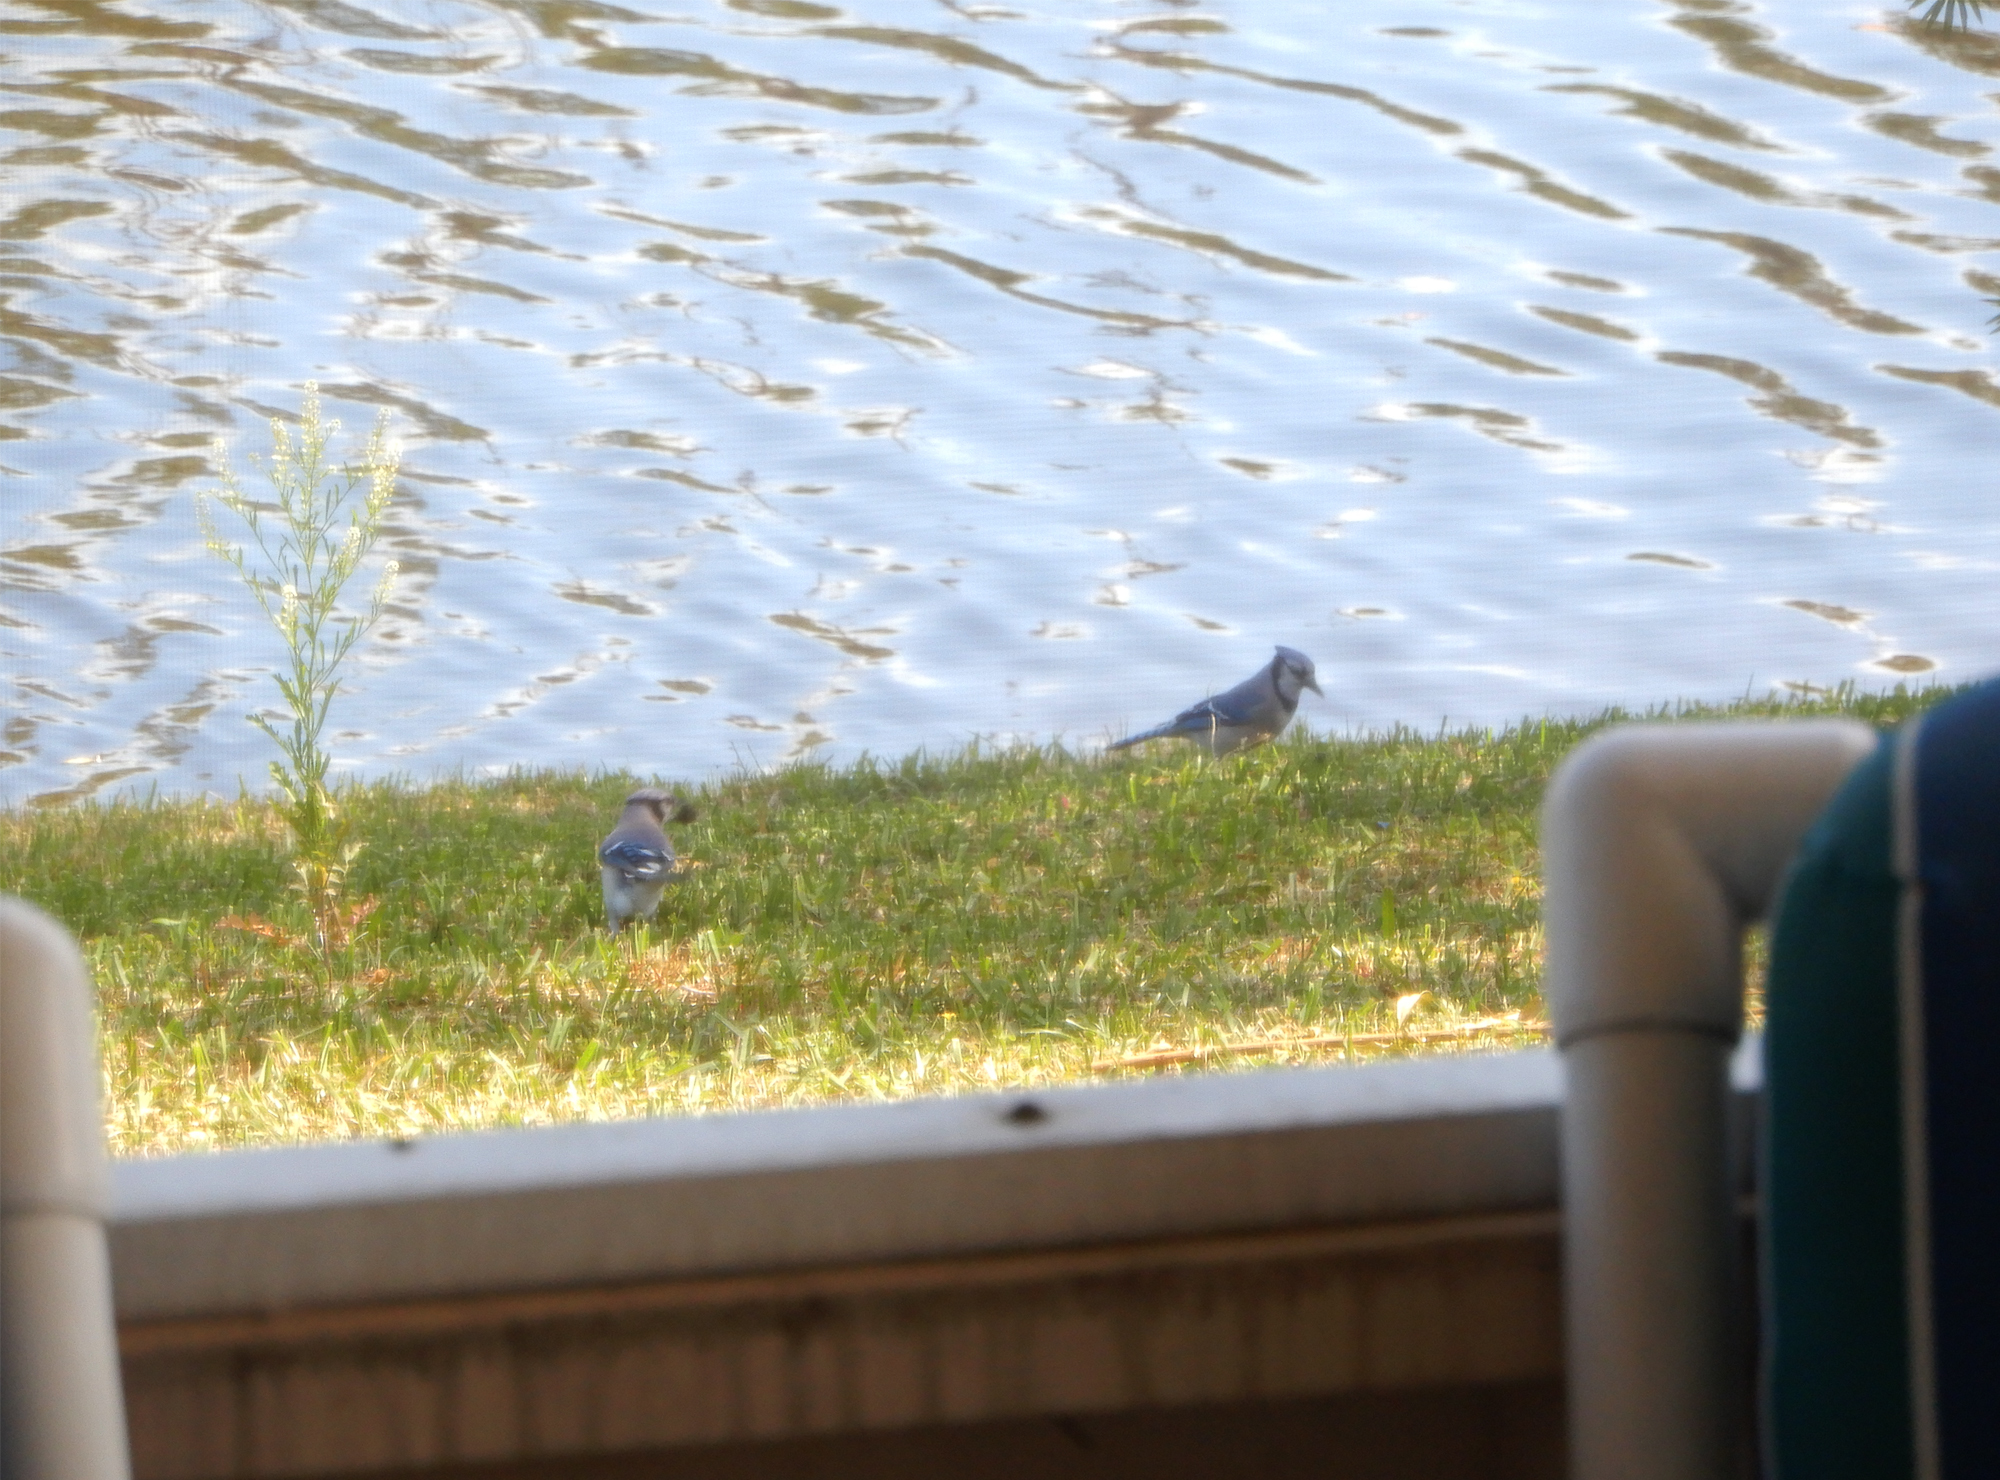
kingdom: Animalia
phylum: Chordata
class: Aves
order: Passeriformes
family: Corvidae
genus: Cyanocitta
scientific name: Cyanocitta cristata
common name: Blue jay
